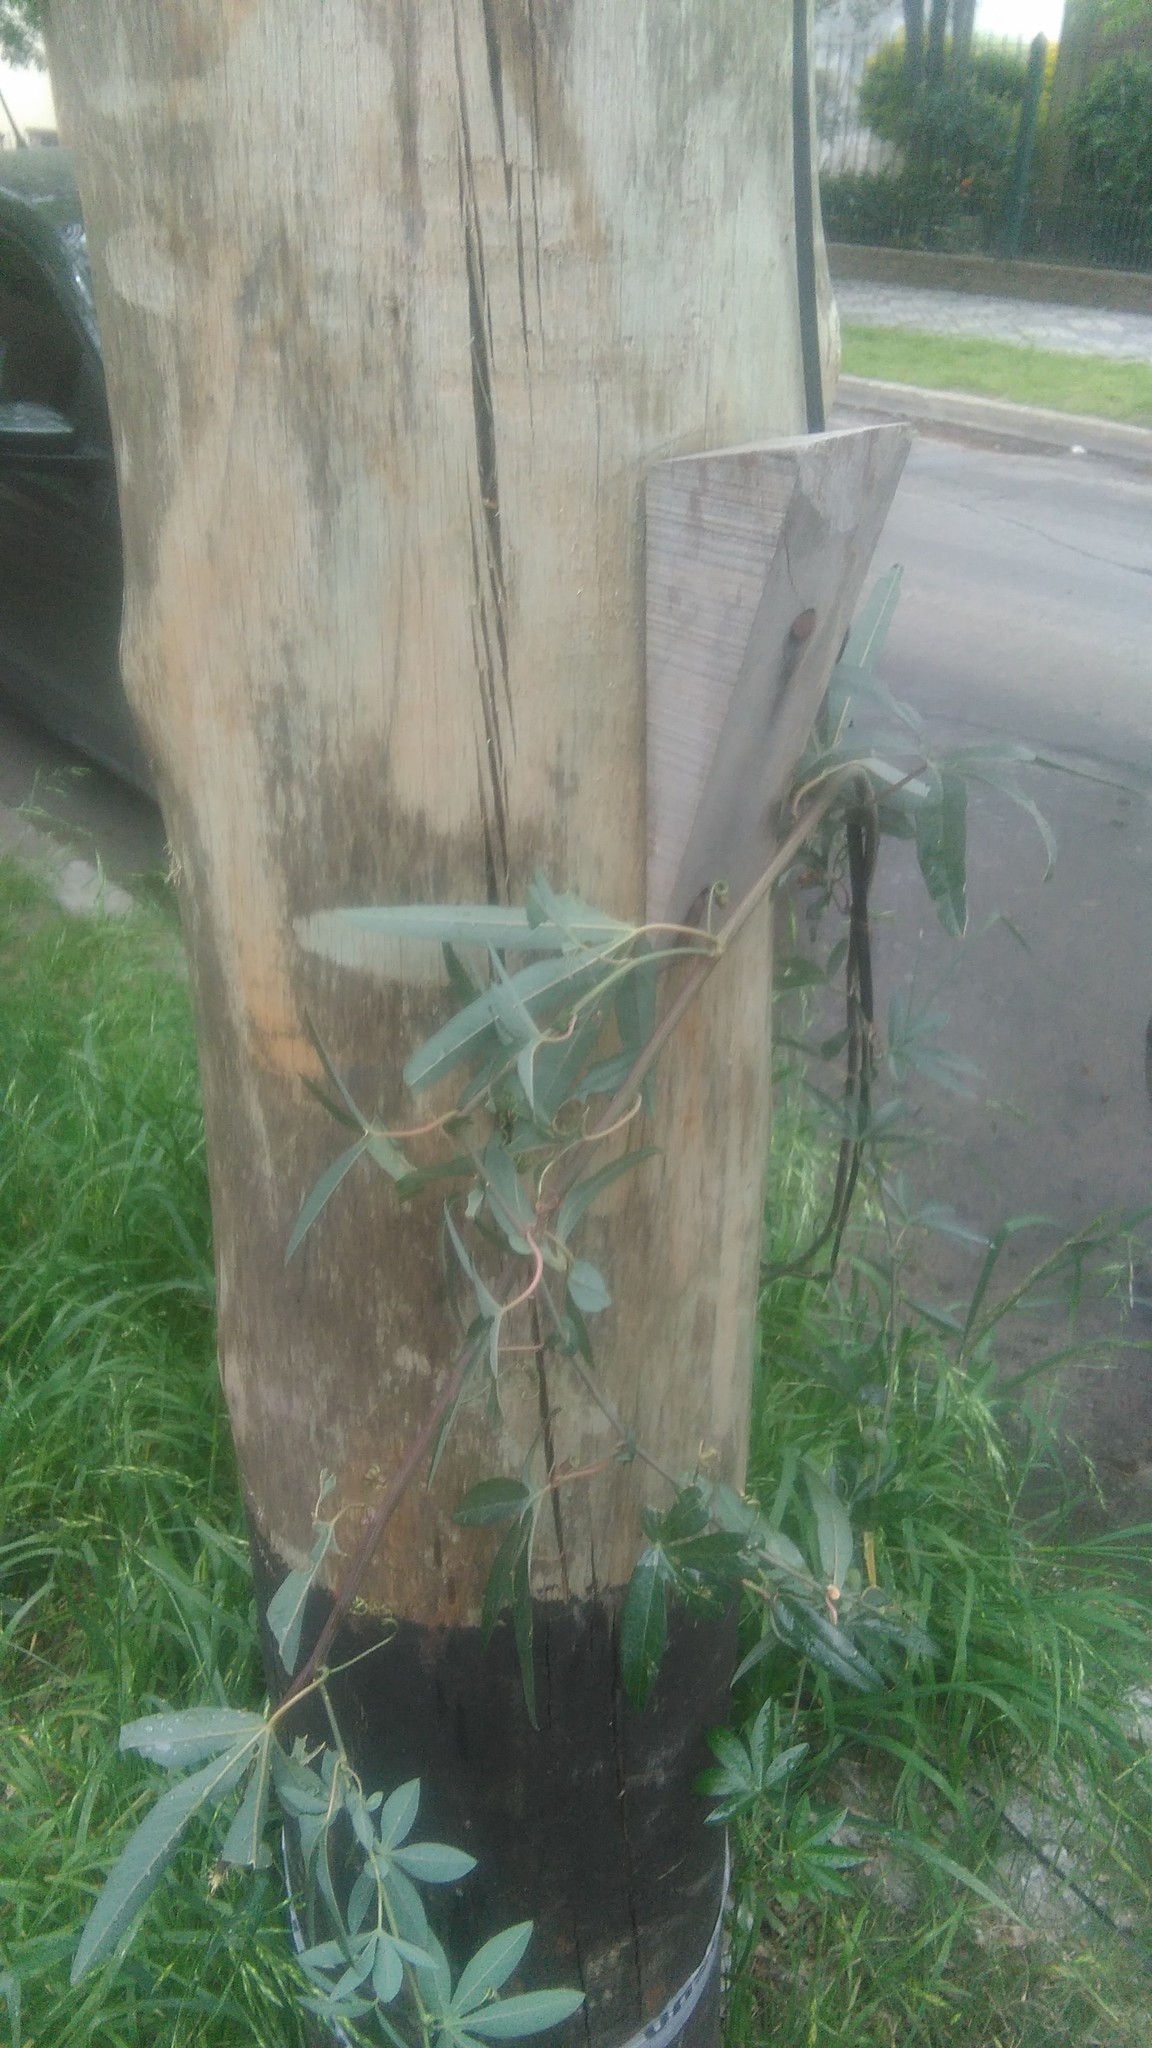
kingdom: Plantae
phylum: Tracheophyta
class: Magnoliopsida
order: Malpighiales
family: Passifloraceae
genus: Passiflora
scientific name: Passiflora caerulea
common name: Blue passionflower
